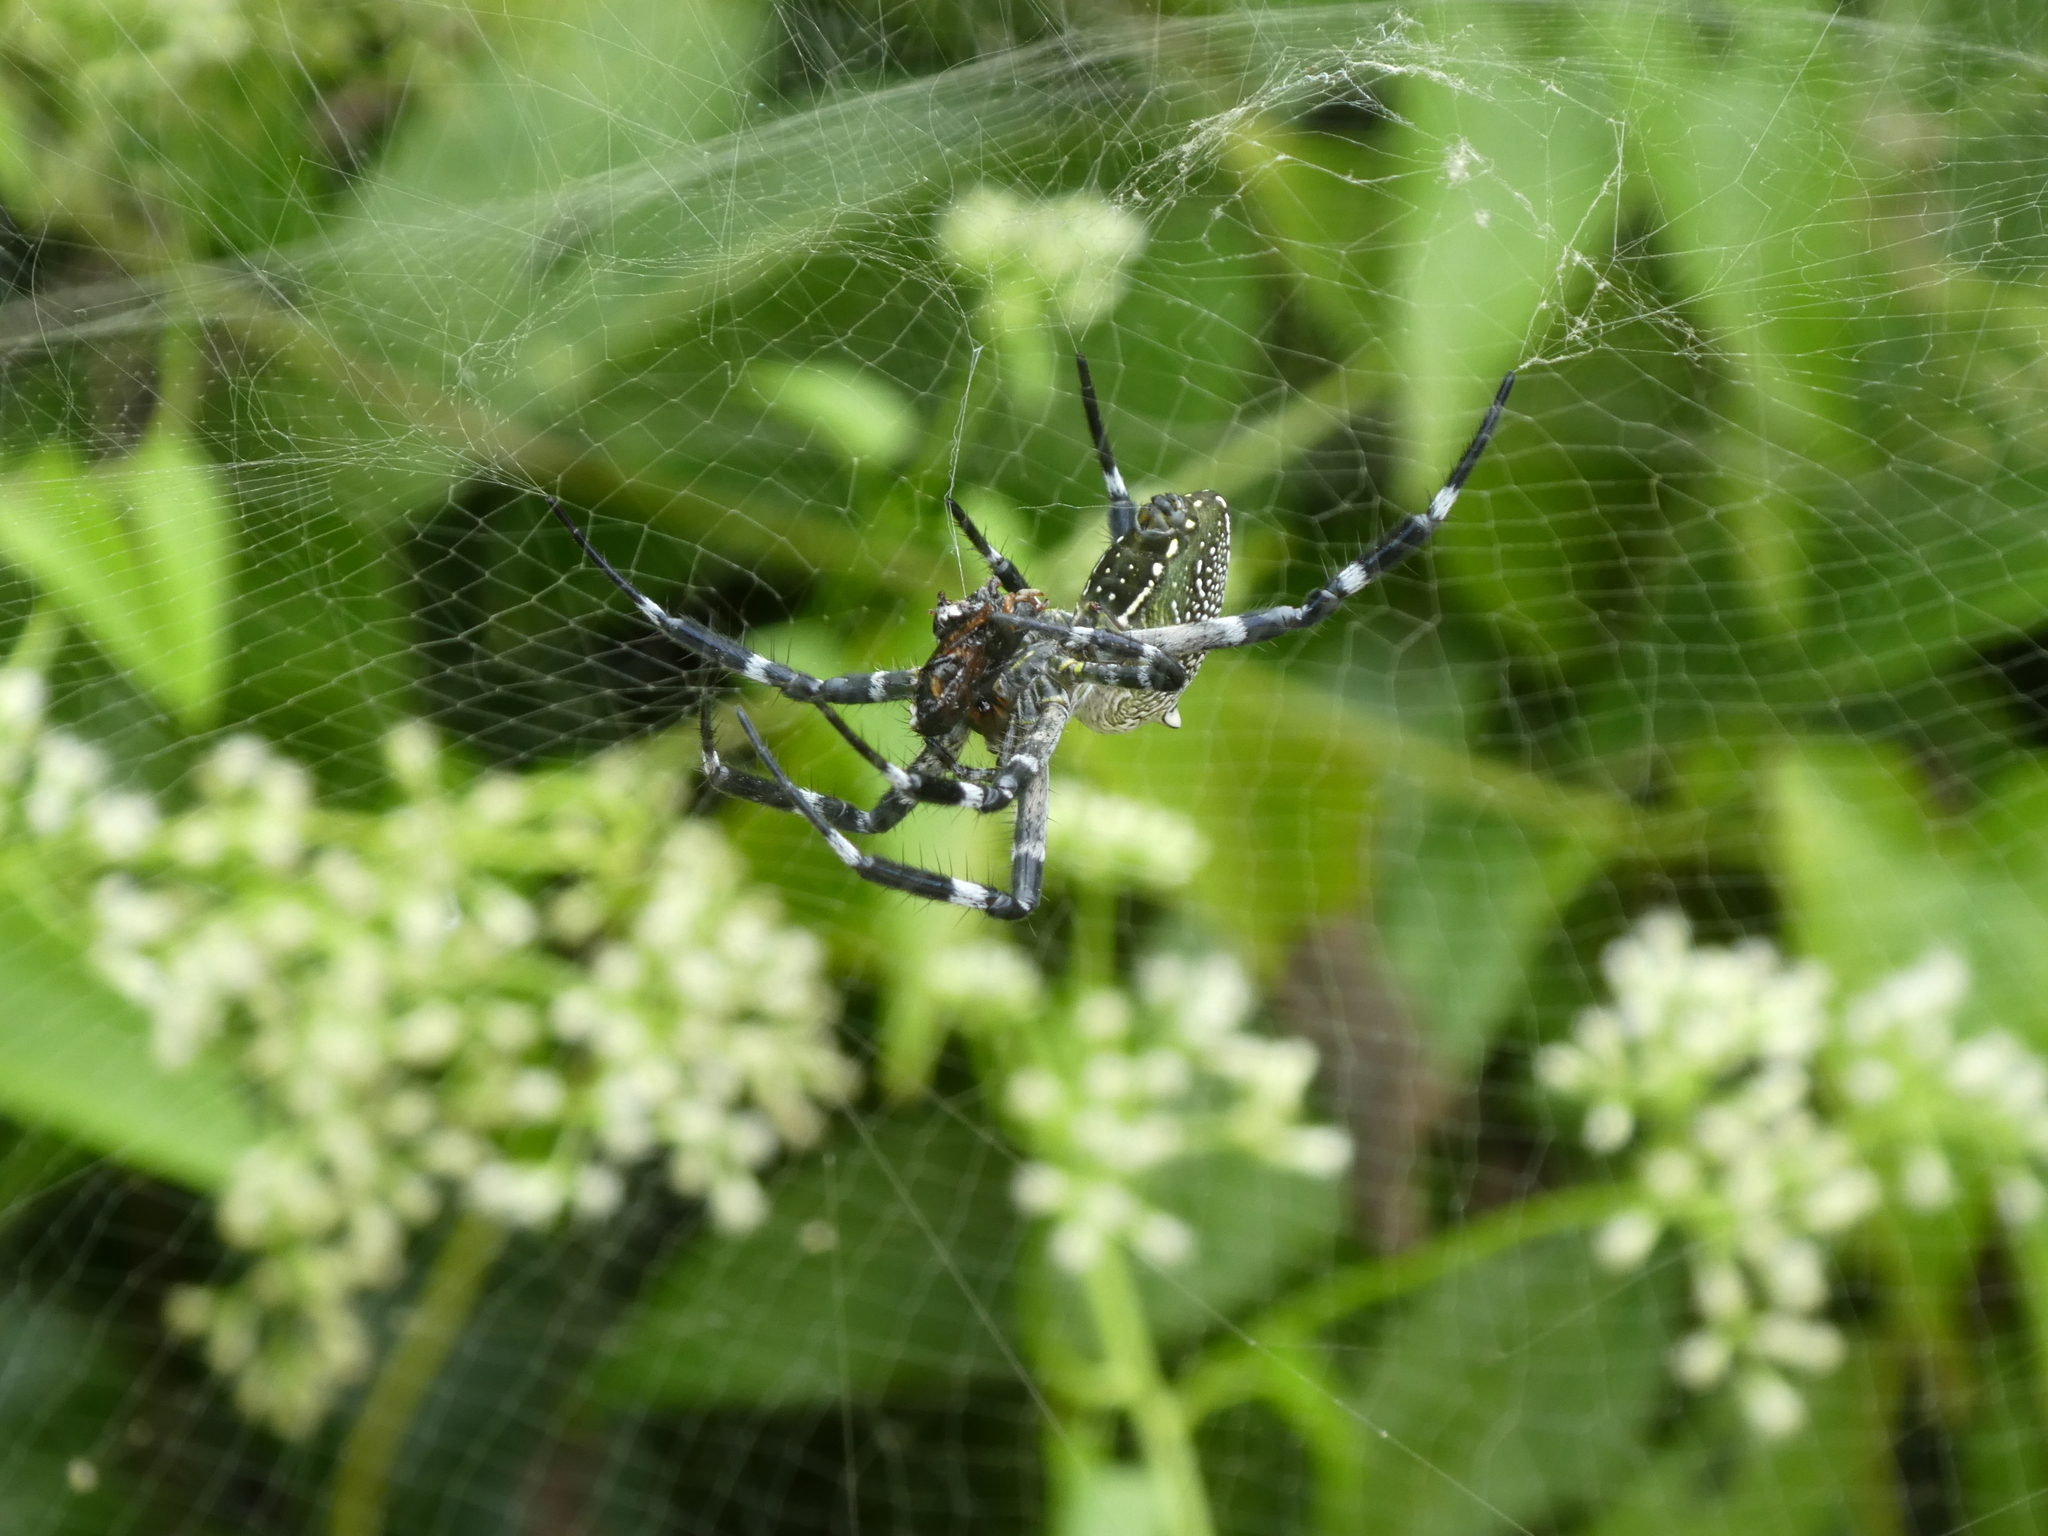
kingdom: Chromista
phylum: Ochrophyta
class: Dictyochophyceae
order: Pedinellales
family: Cyrtophoraceae
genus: Cyrtophora
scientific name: Cyrtophora moluccensis
